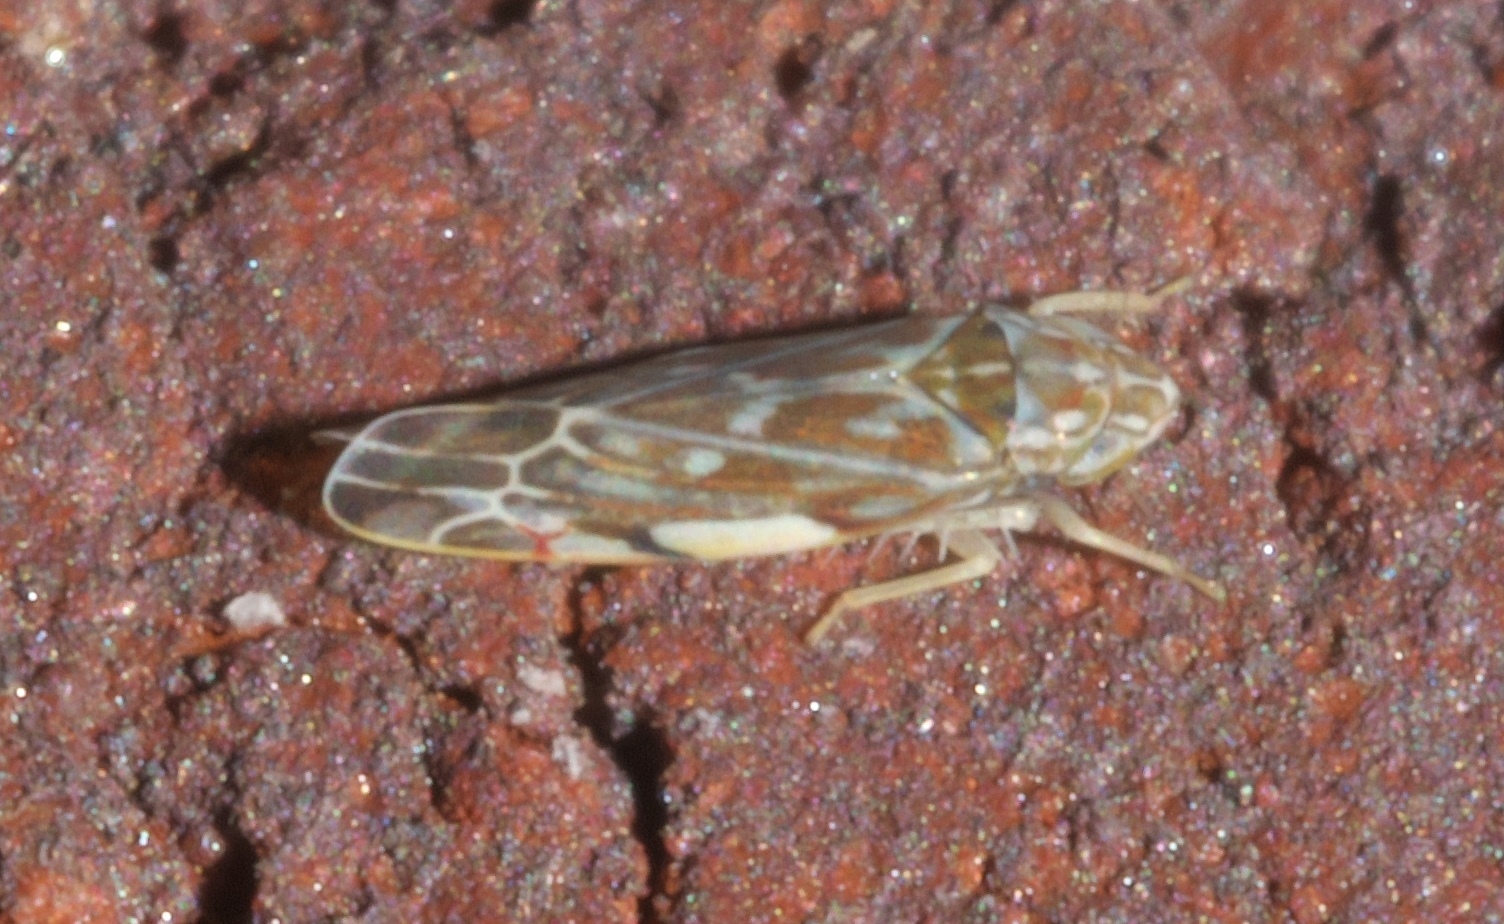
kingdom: Animalia
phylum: Arthropoda
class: Insecta
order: Hemiptera
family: Cicadellidae
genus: Erasmoneura
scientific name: Erasmoneura vulnerata
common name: The wounded leafhopper
